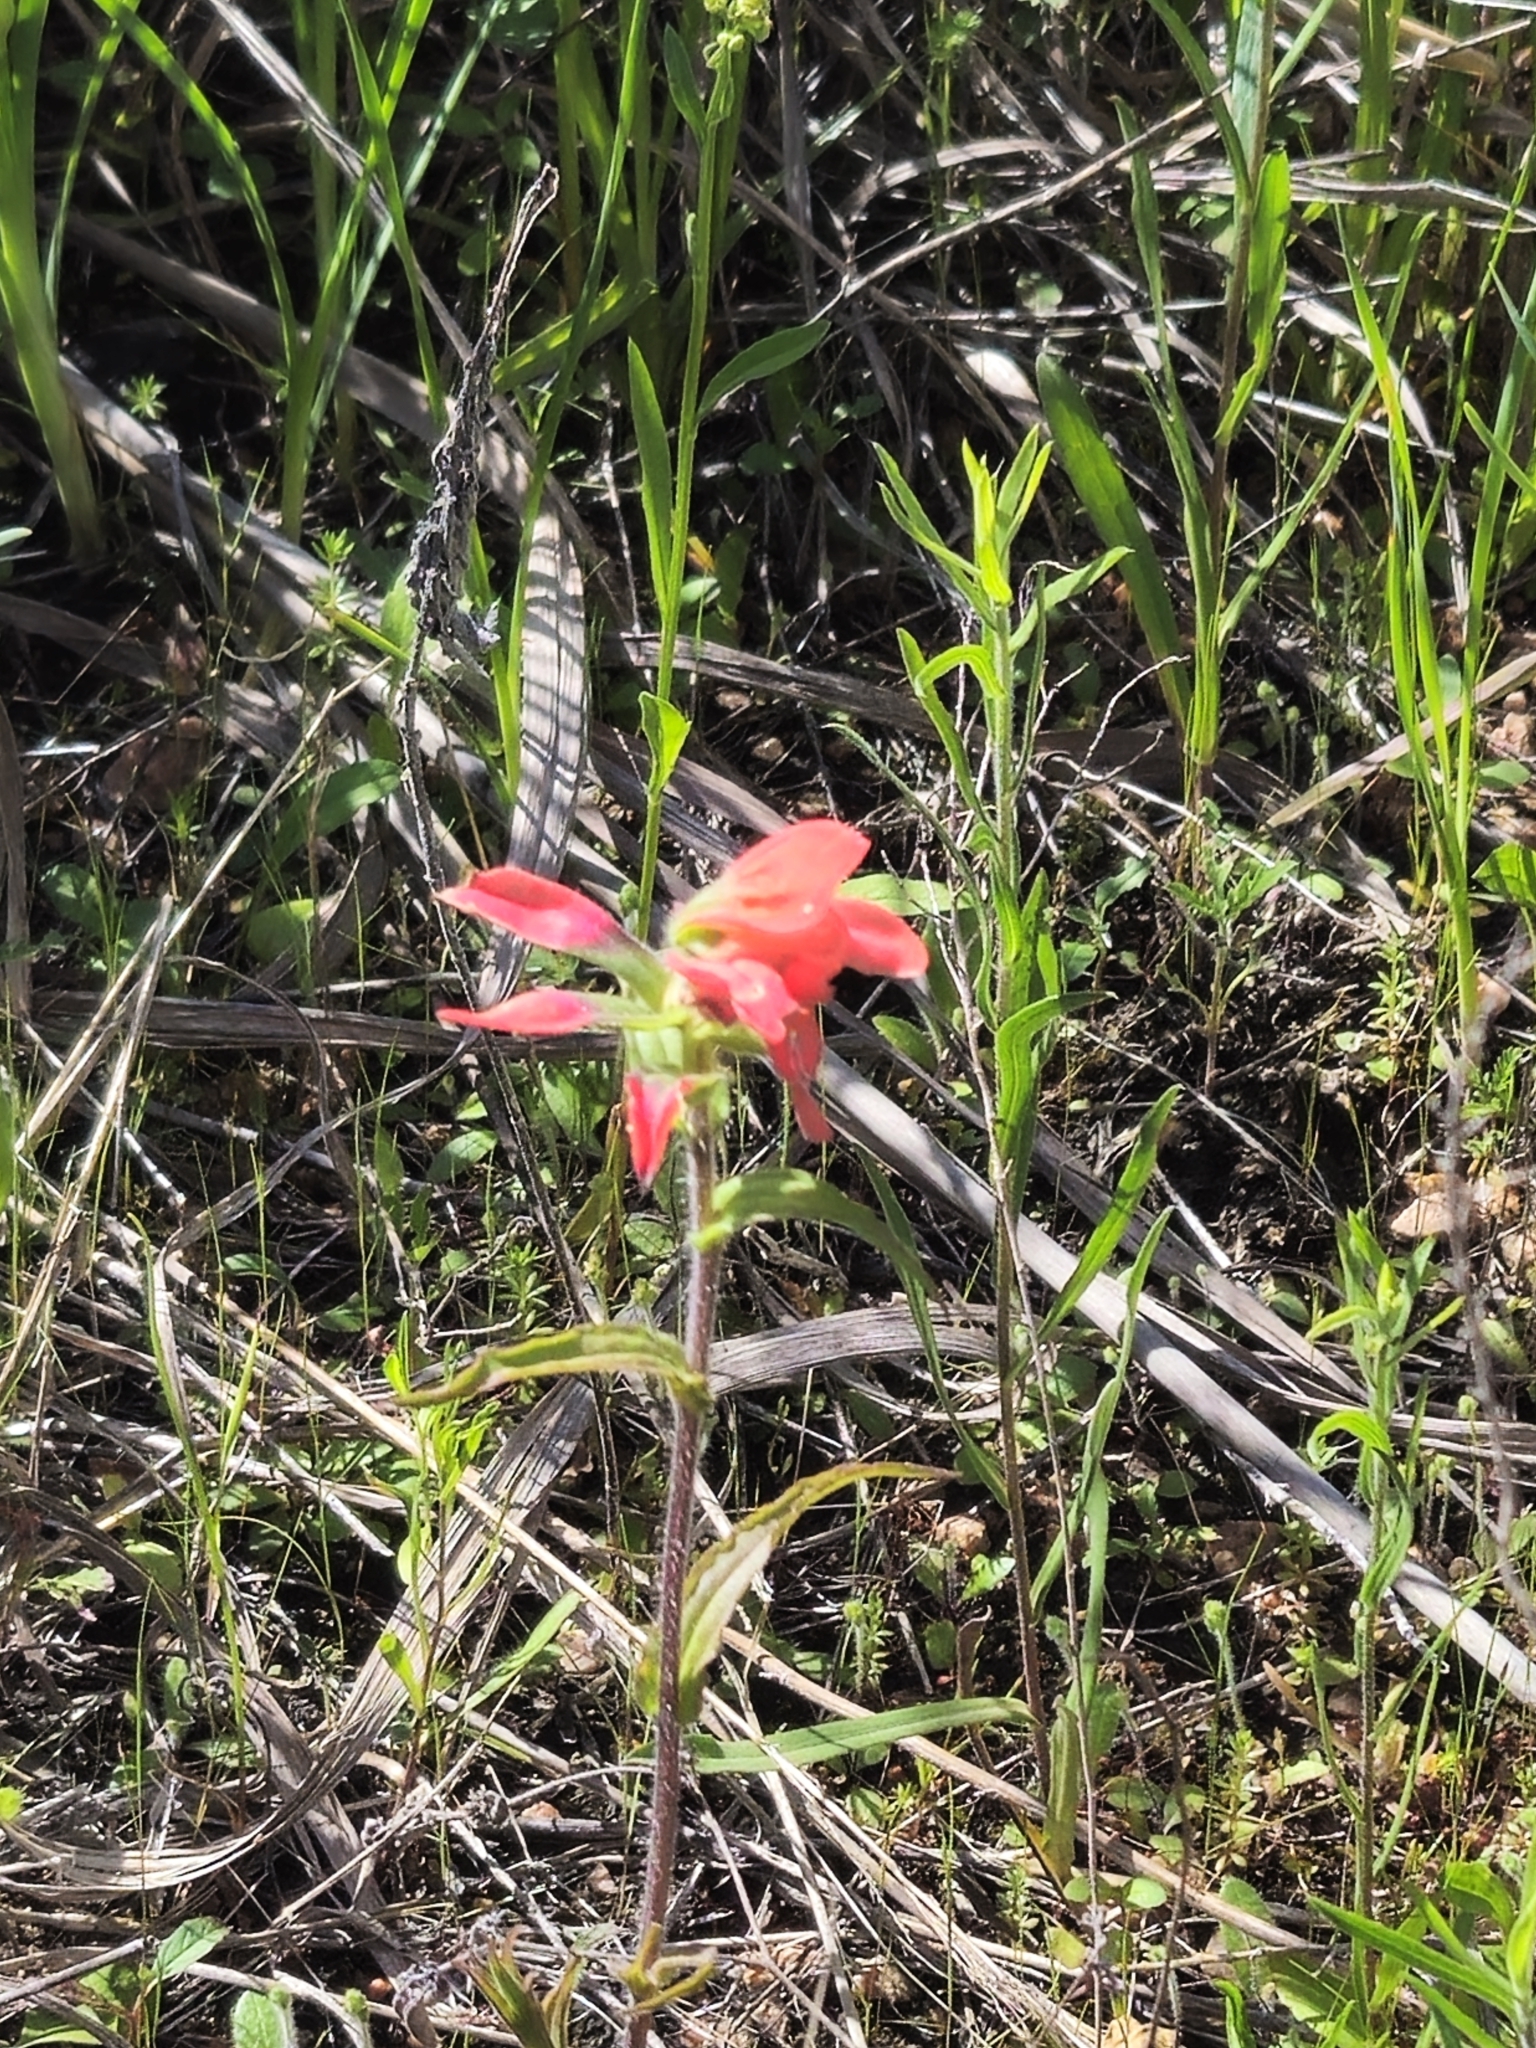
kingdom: Plantae
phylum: Tracheophyta
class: Magnoliopsida
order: Lamiales
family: Orobanchaceae
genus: Castilleja
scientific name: Castilleja indivisa
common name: Texas paintbrush
